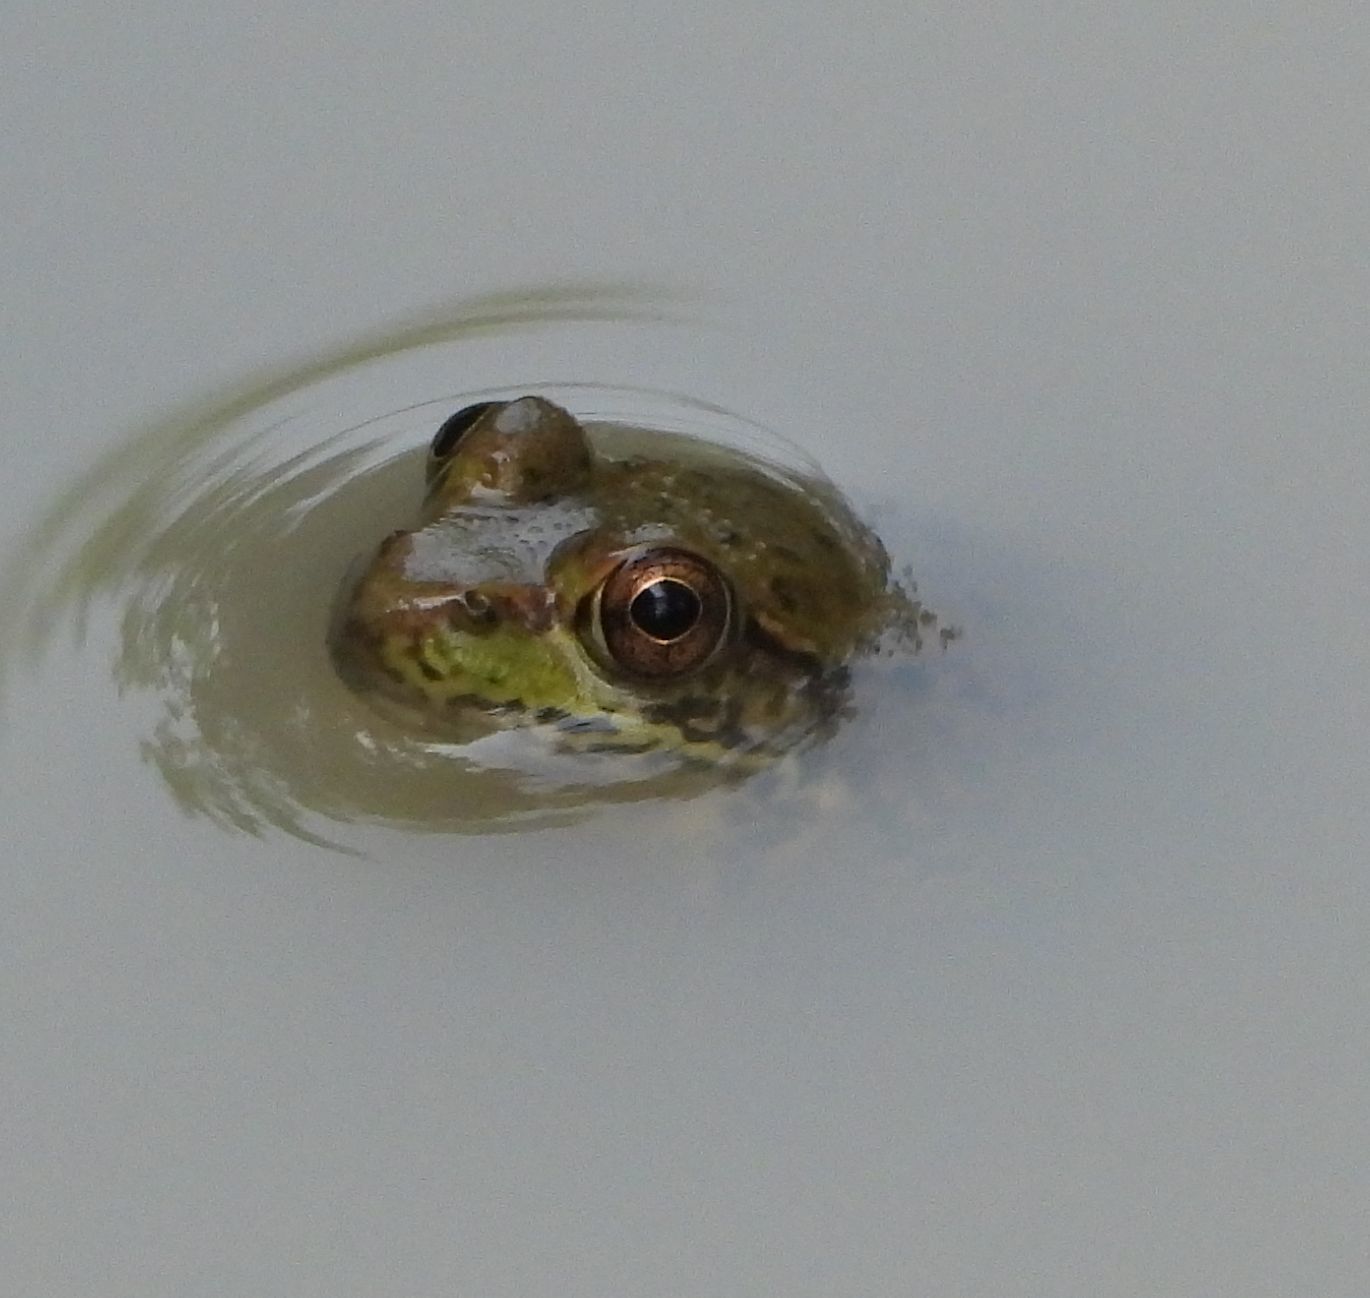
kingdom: Animalia
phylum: Chordata
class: Amphibia
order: Anura
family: Ranidae
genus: Lithobates
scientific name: Lithobates clamitans
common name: Green frog
